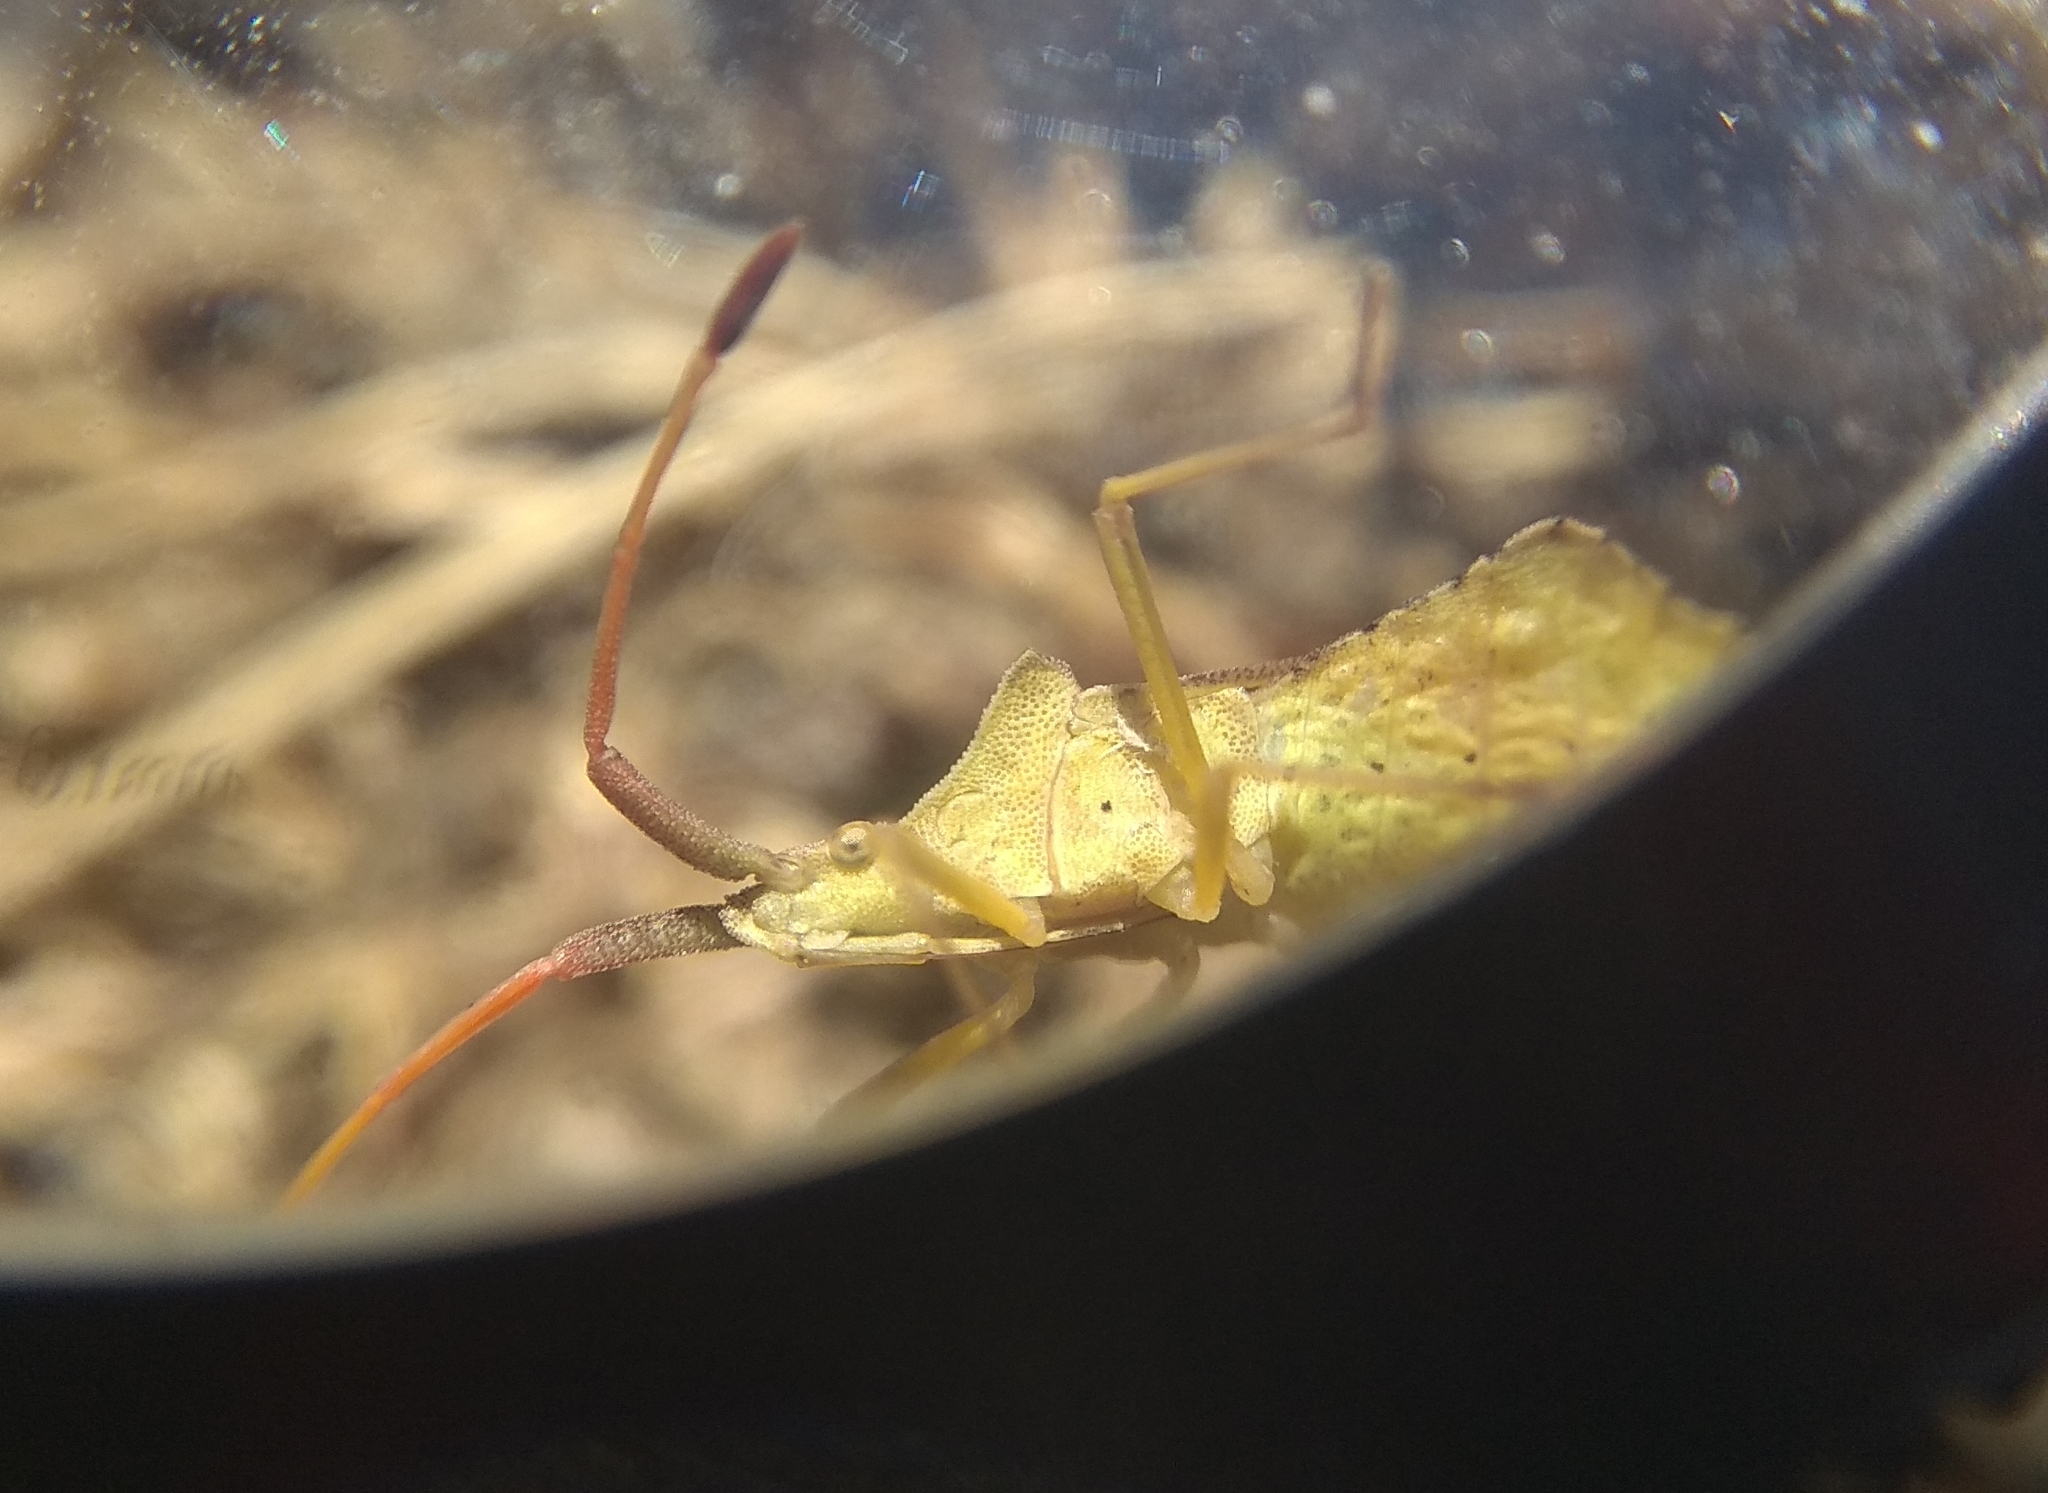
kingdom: Animalia
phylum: Arthropoda
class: Insecta
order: Hemiptera
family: Coreidae
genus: Syromastus
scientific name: Syromastus rhombeus
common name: Rhombic leatherbug
